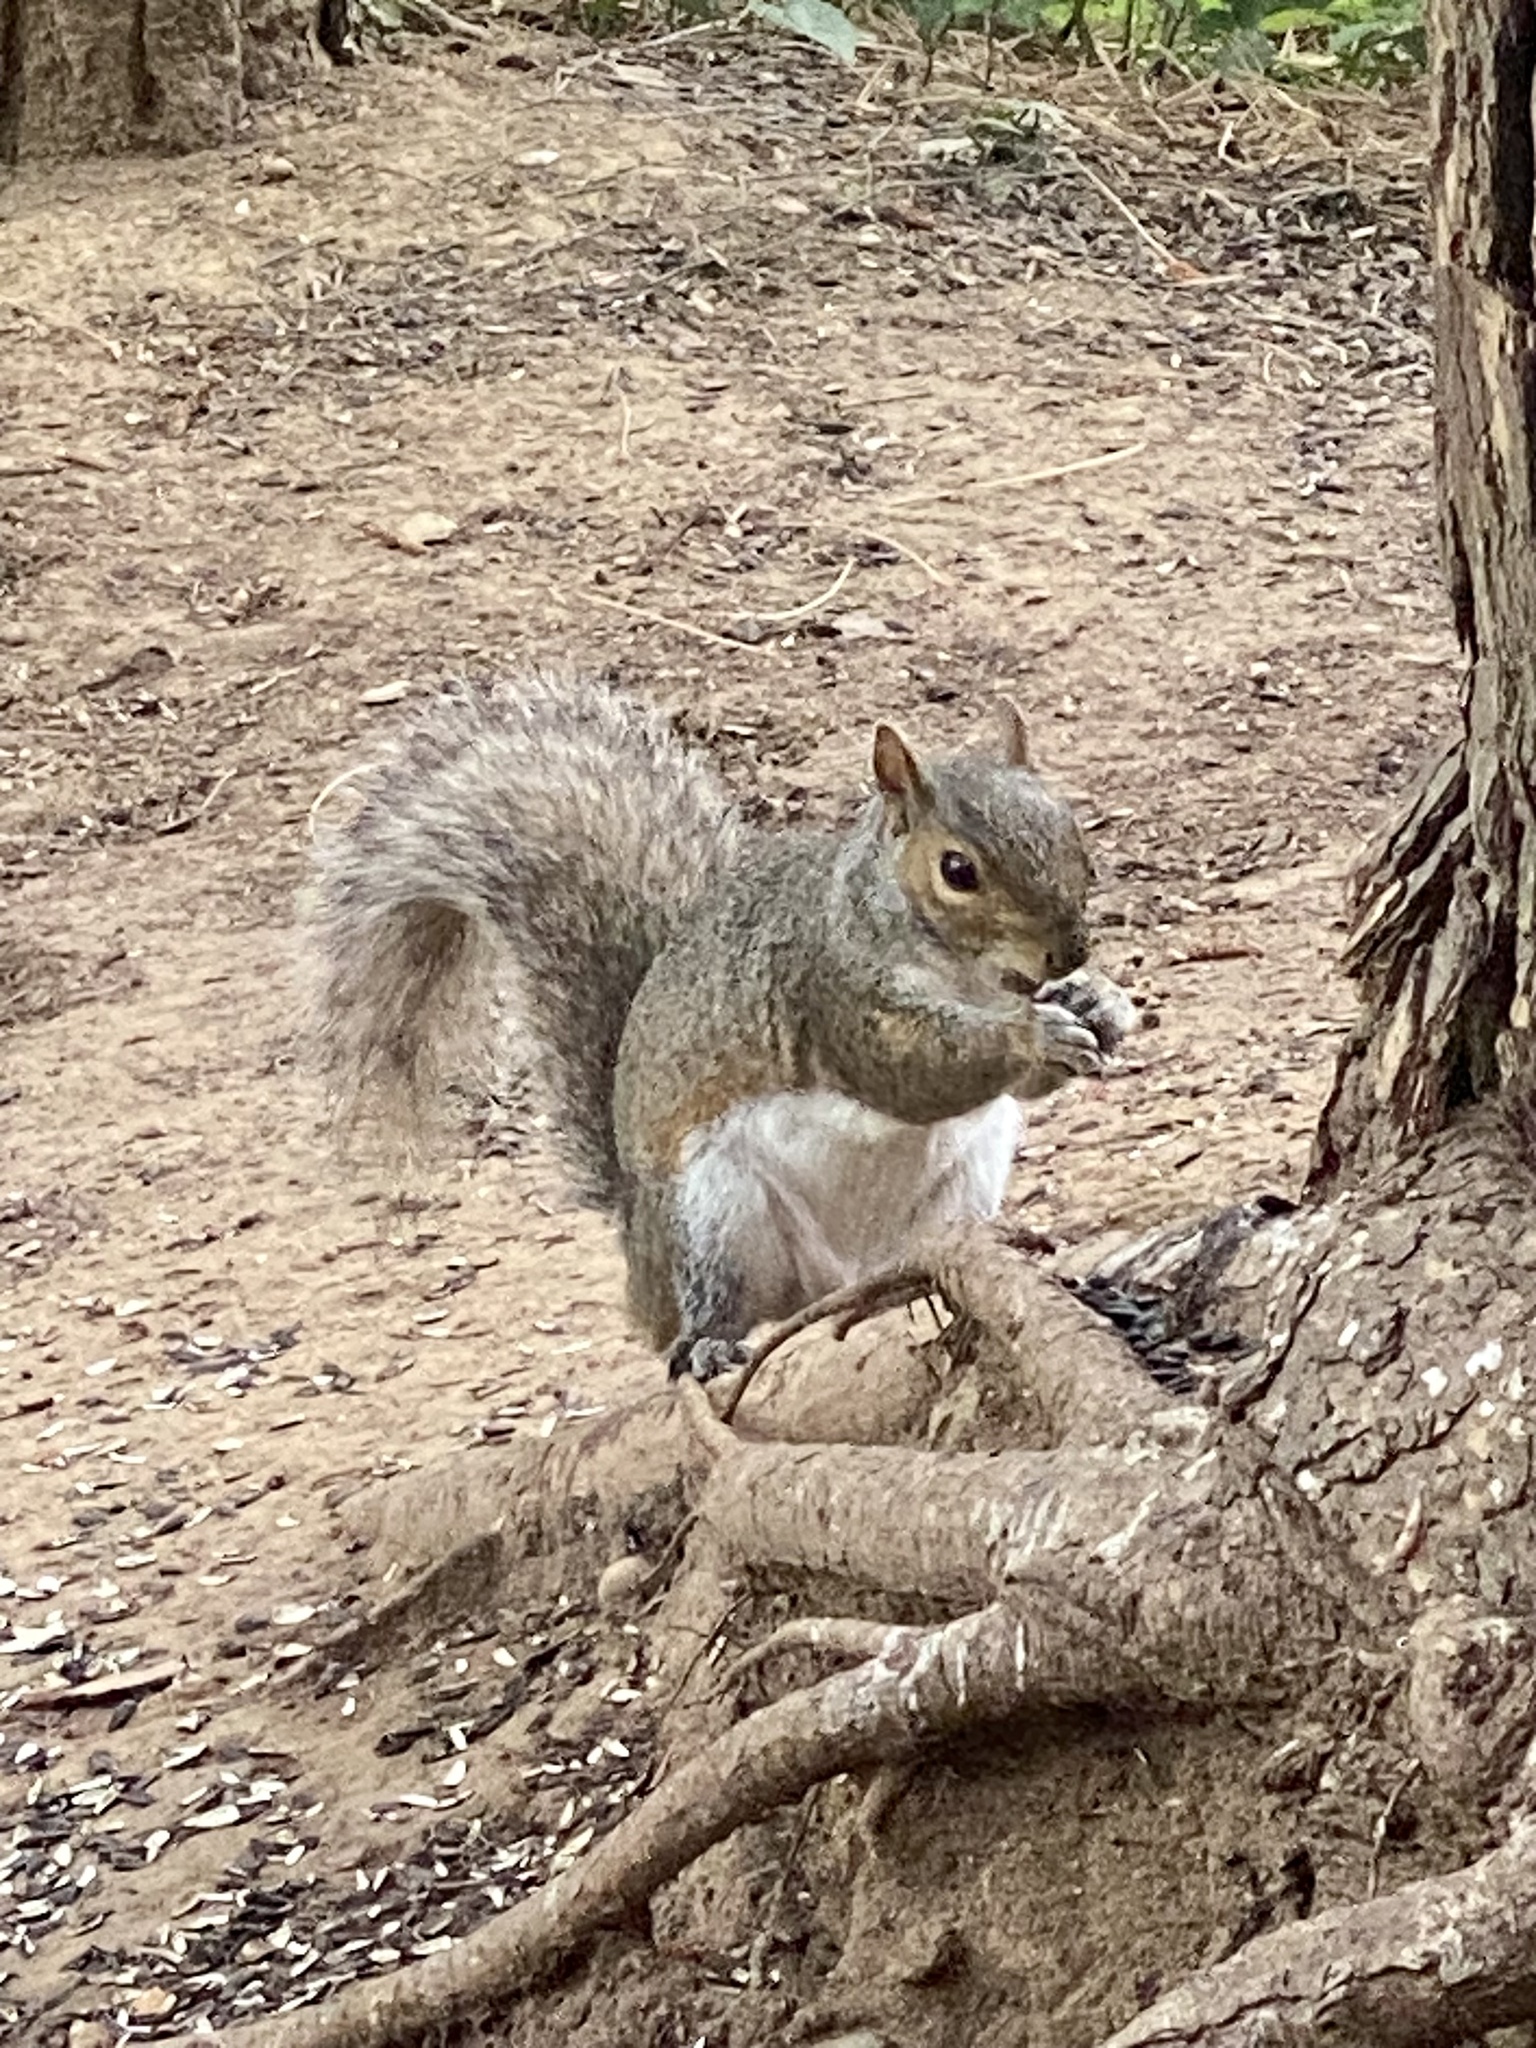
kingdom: Animalia
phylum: Chordata
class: Mammalia
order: Rodentia
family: Sciuridae
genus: Sciurus
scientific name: Sciurus carolinensis
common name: Eastern gray squirrel
